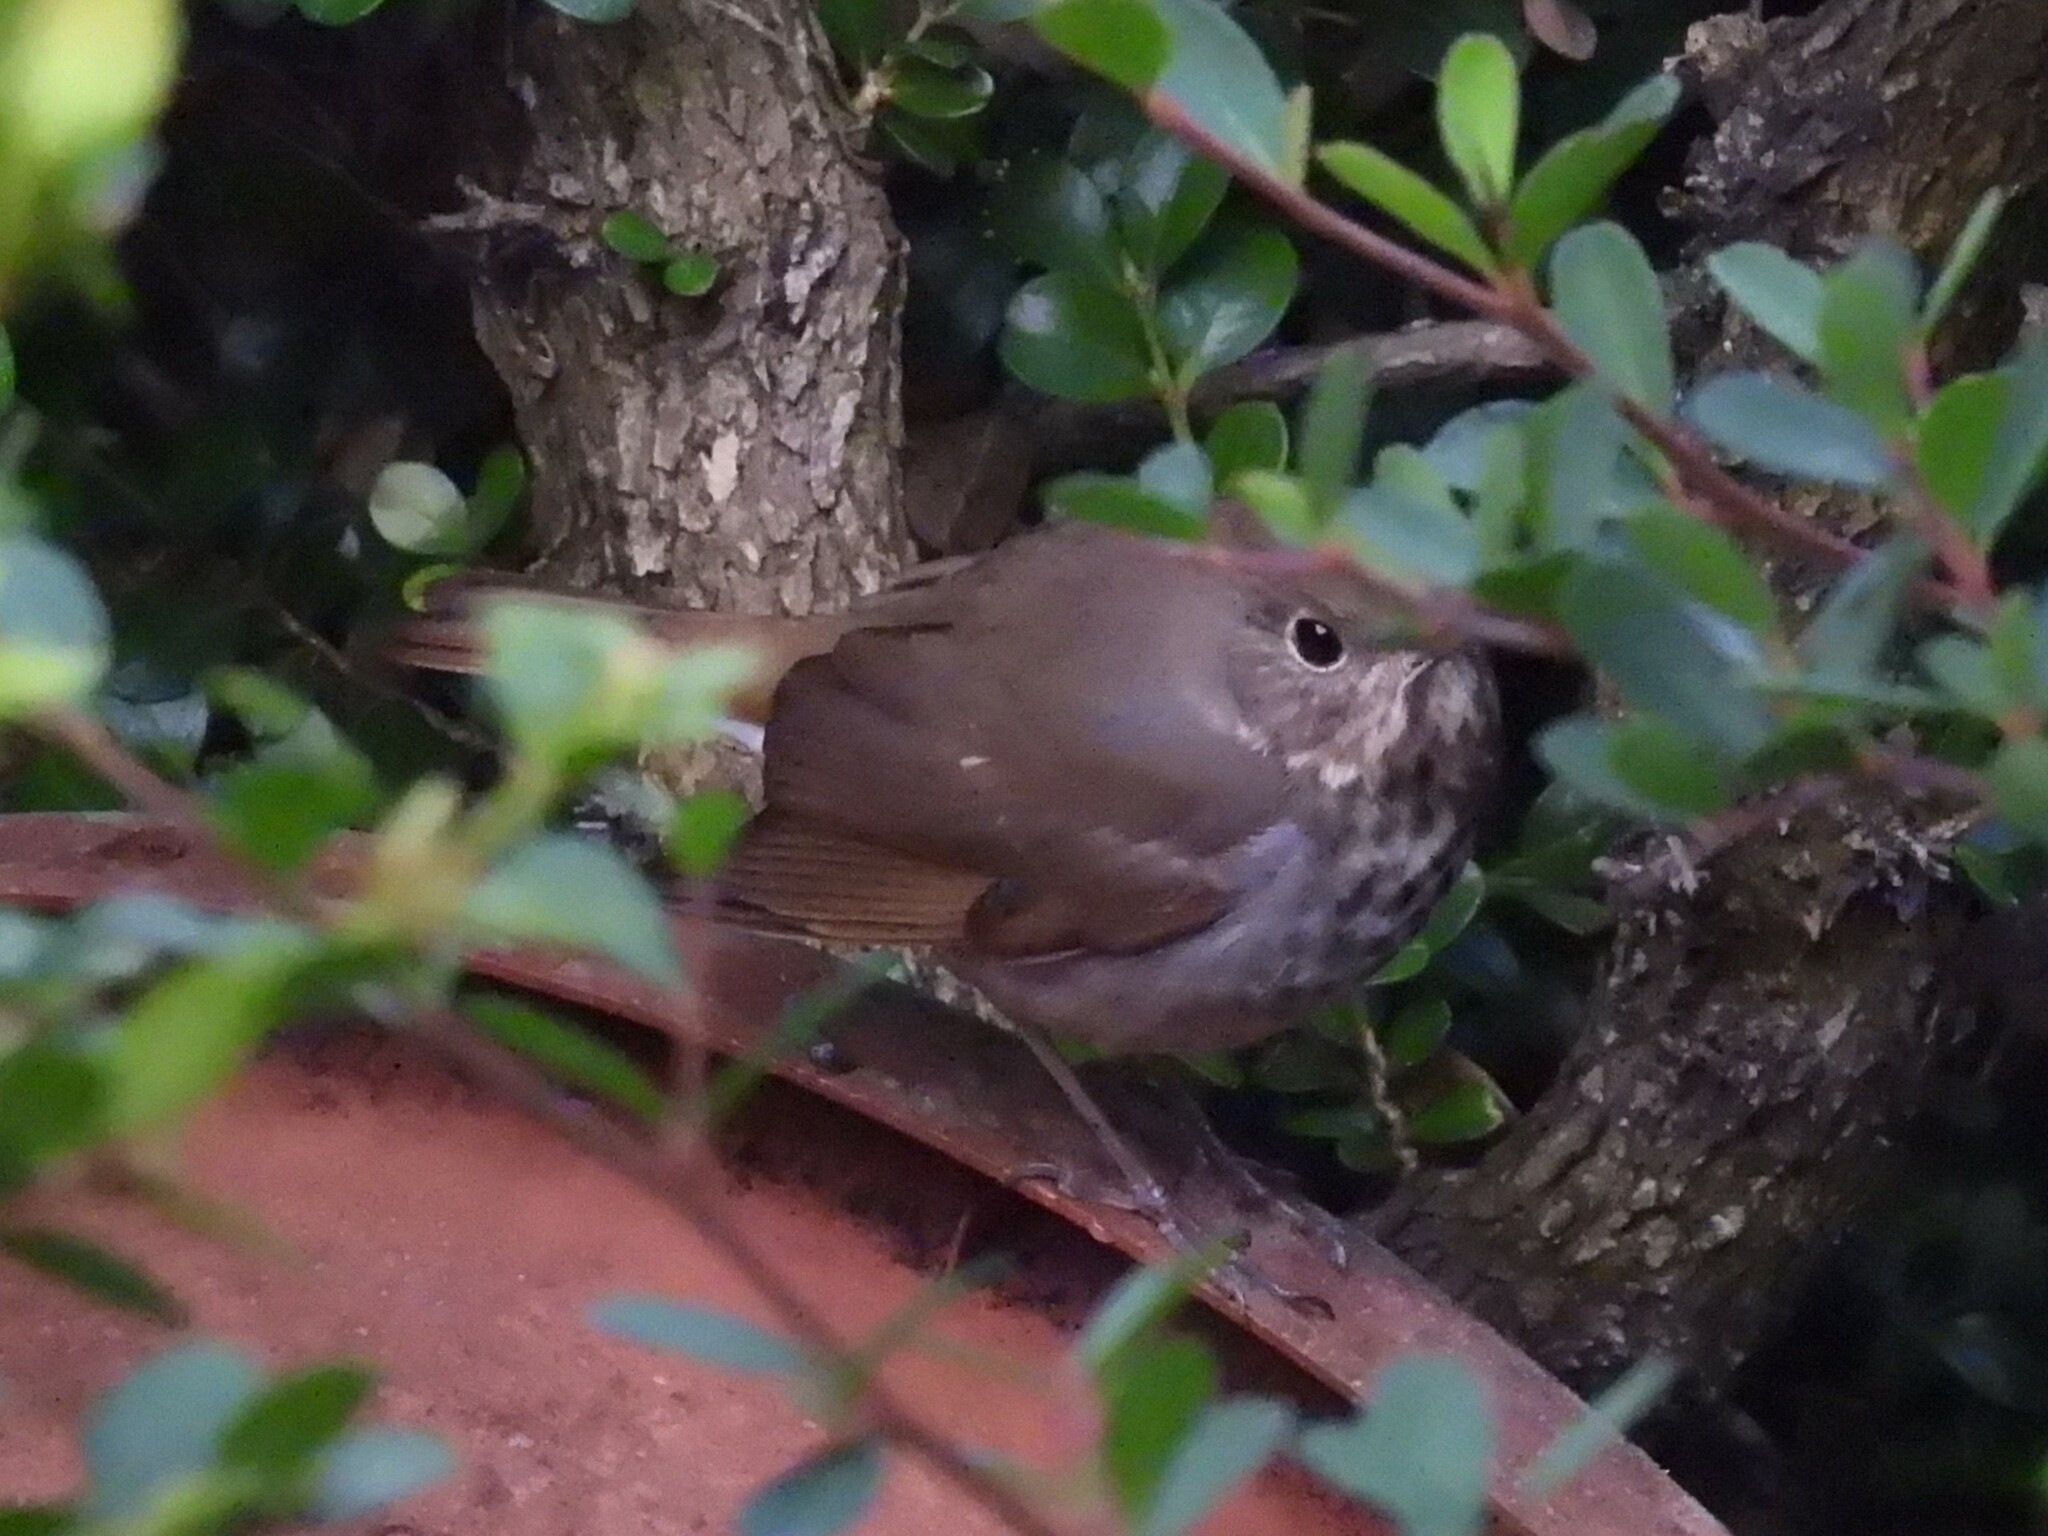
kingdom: Animalia
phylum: Chordata
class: Aves
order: Passeriformes
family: Turdidae
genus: Catharus
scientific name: Catharus guttatus
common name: Hermit thrush
